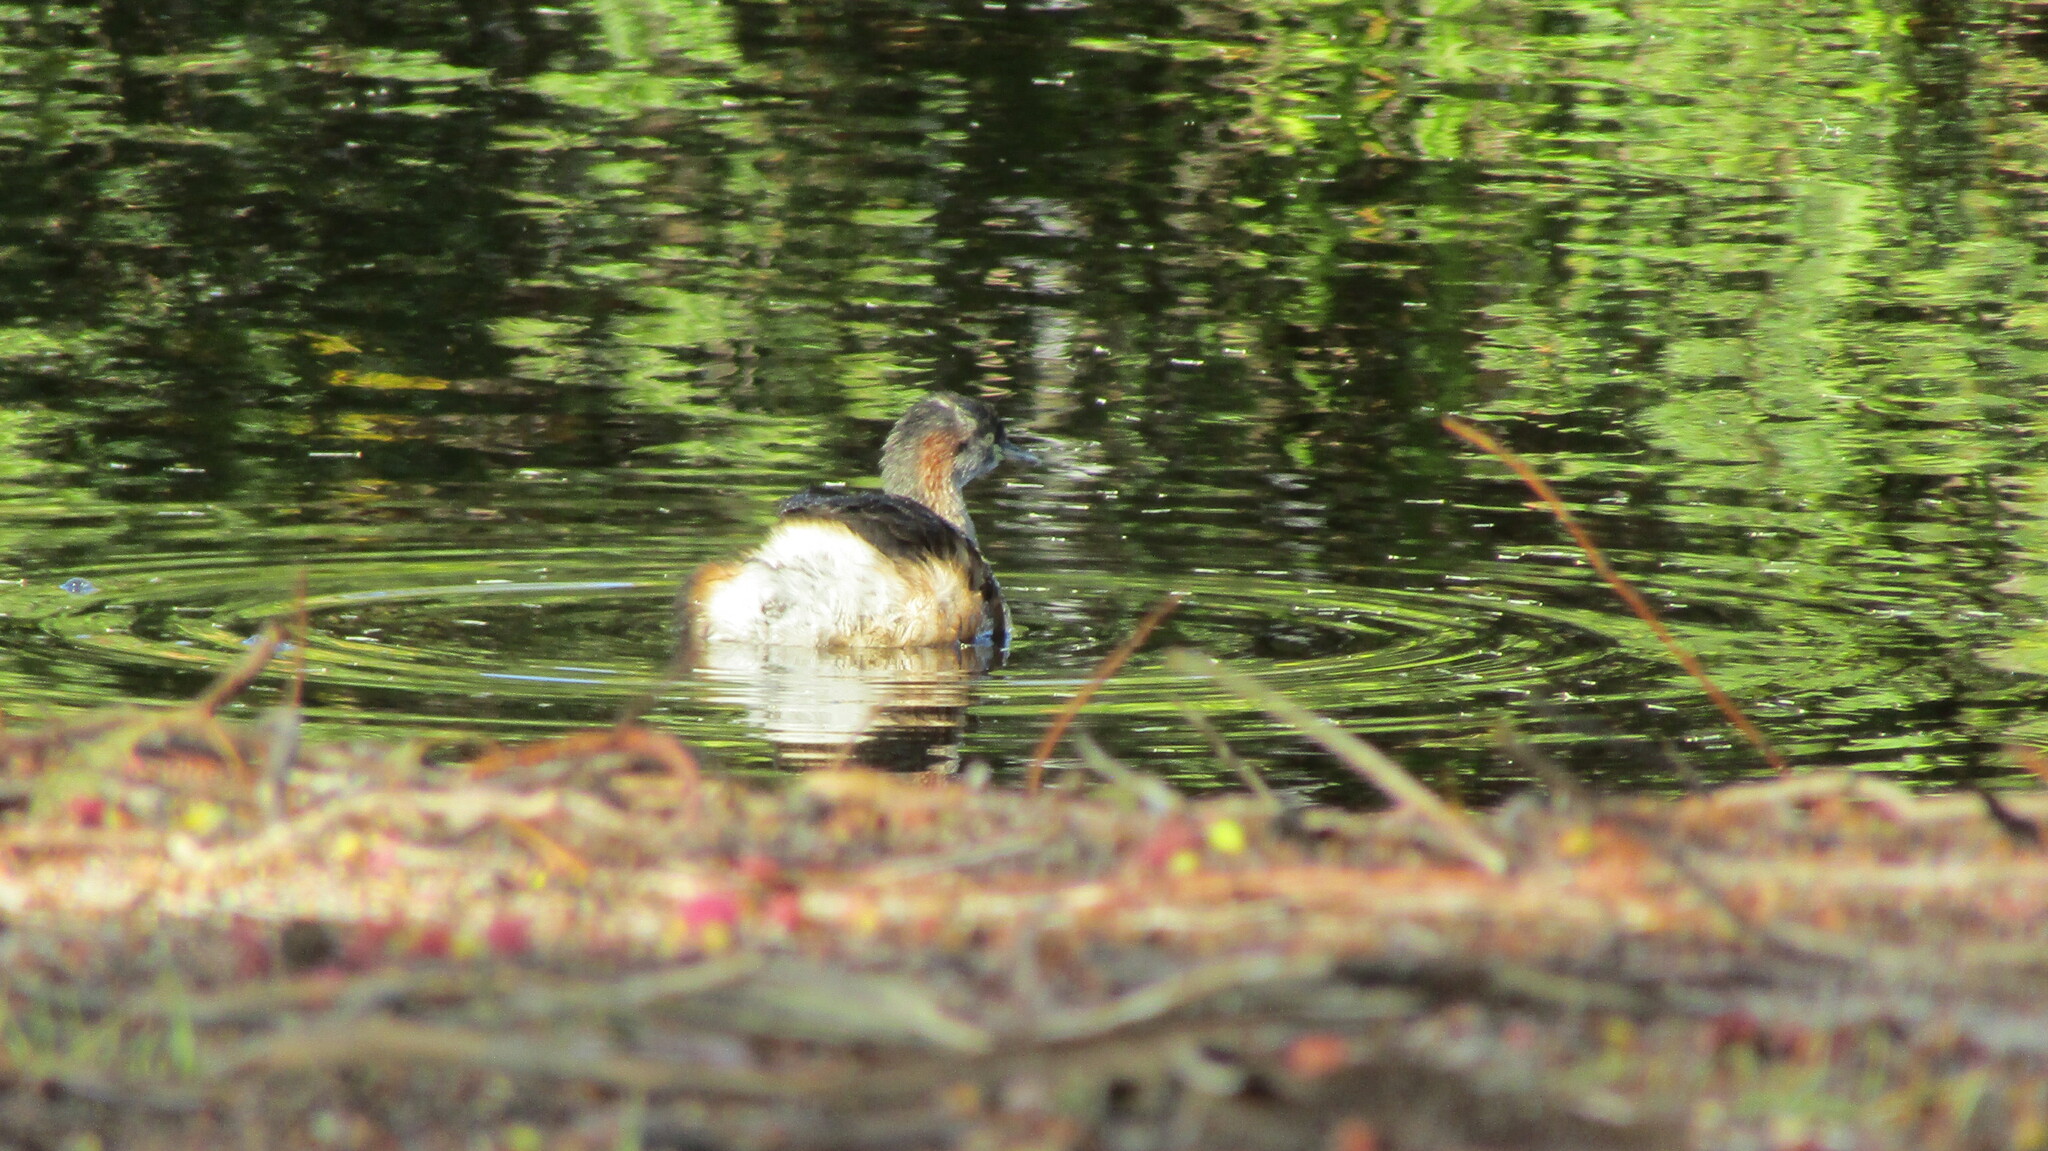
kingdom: Animalia
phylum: Chordata
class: Aves
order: Podicipediformes
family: Podicipedidae
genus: Tachybaptus
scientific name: Tachybaptus novaehollandiae
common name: Australasian grebe
